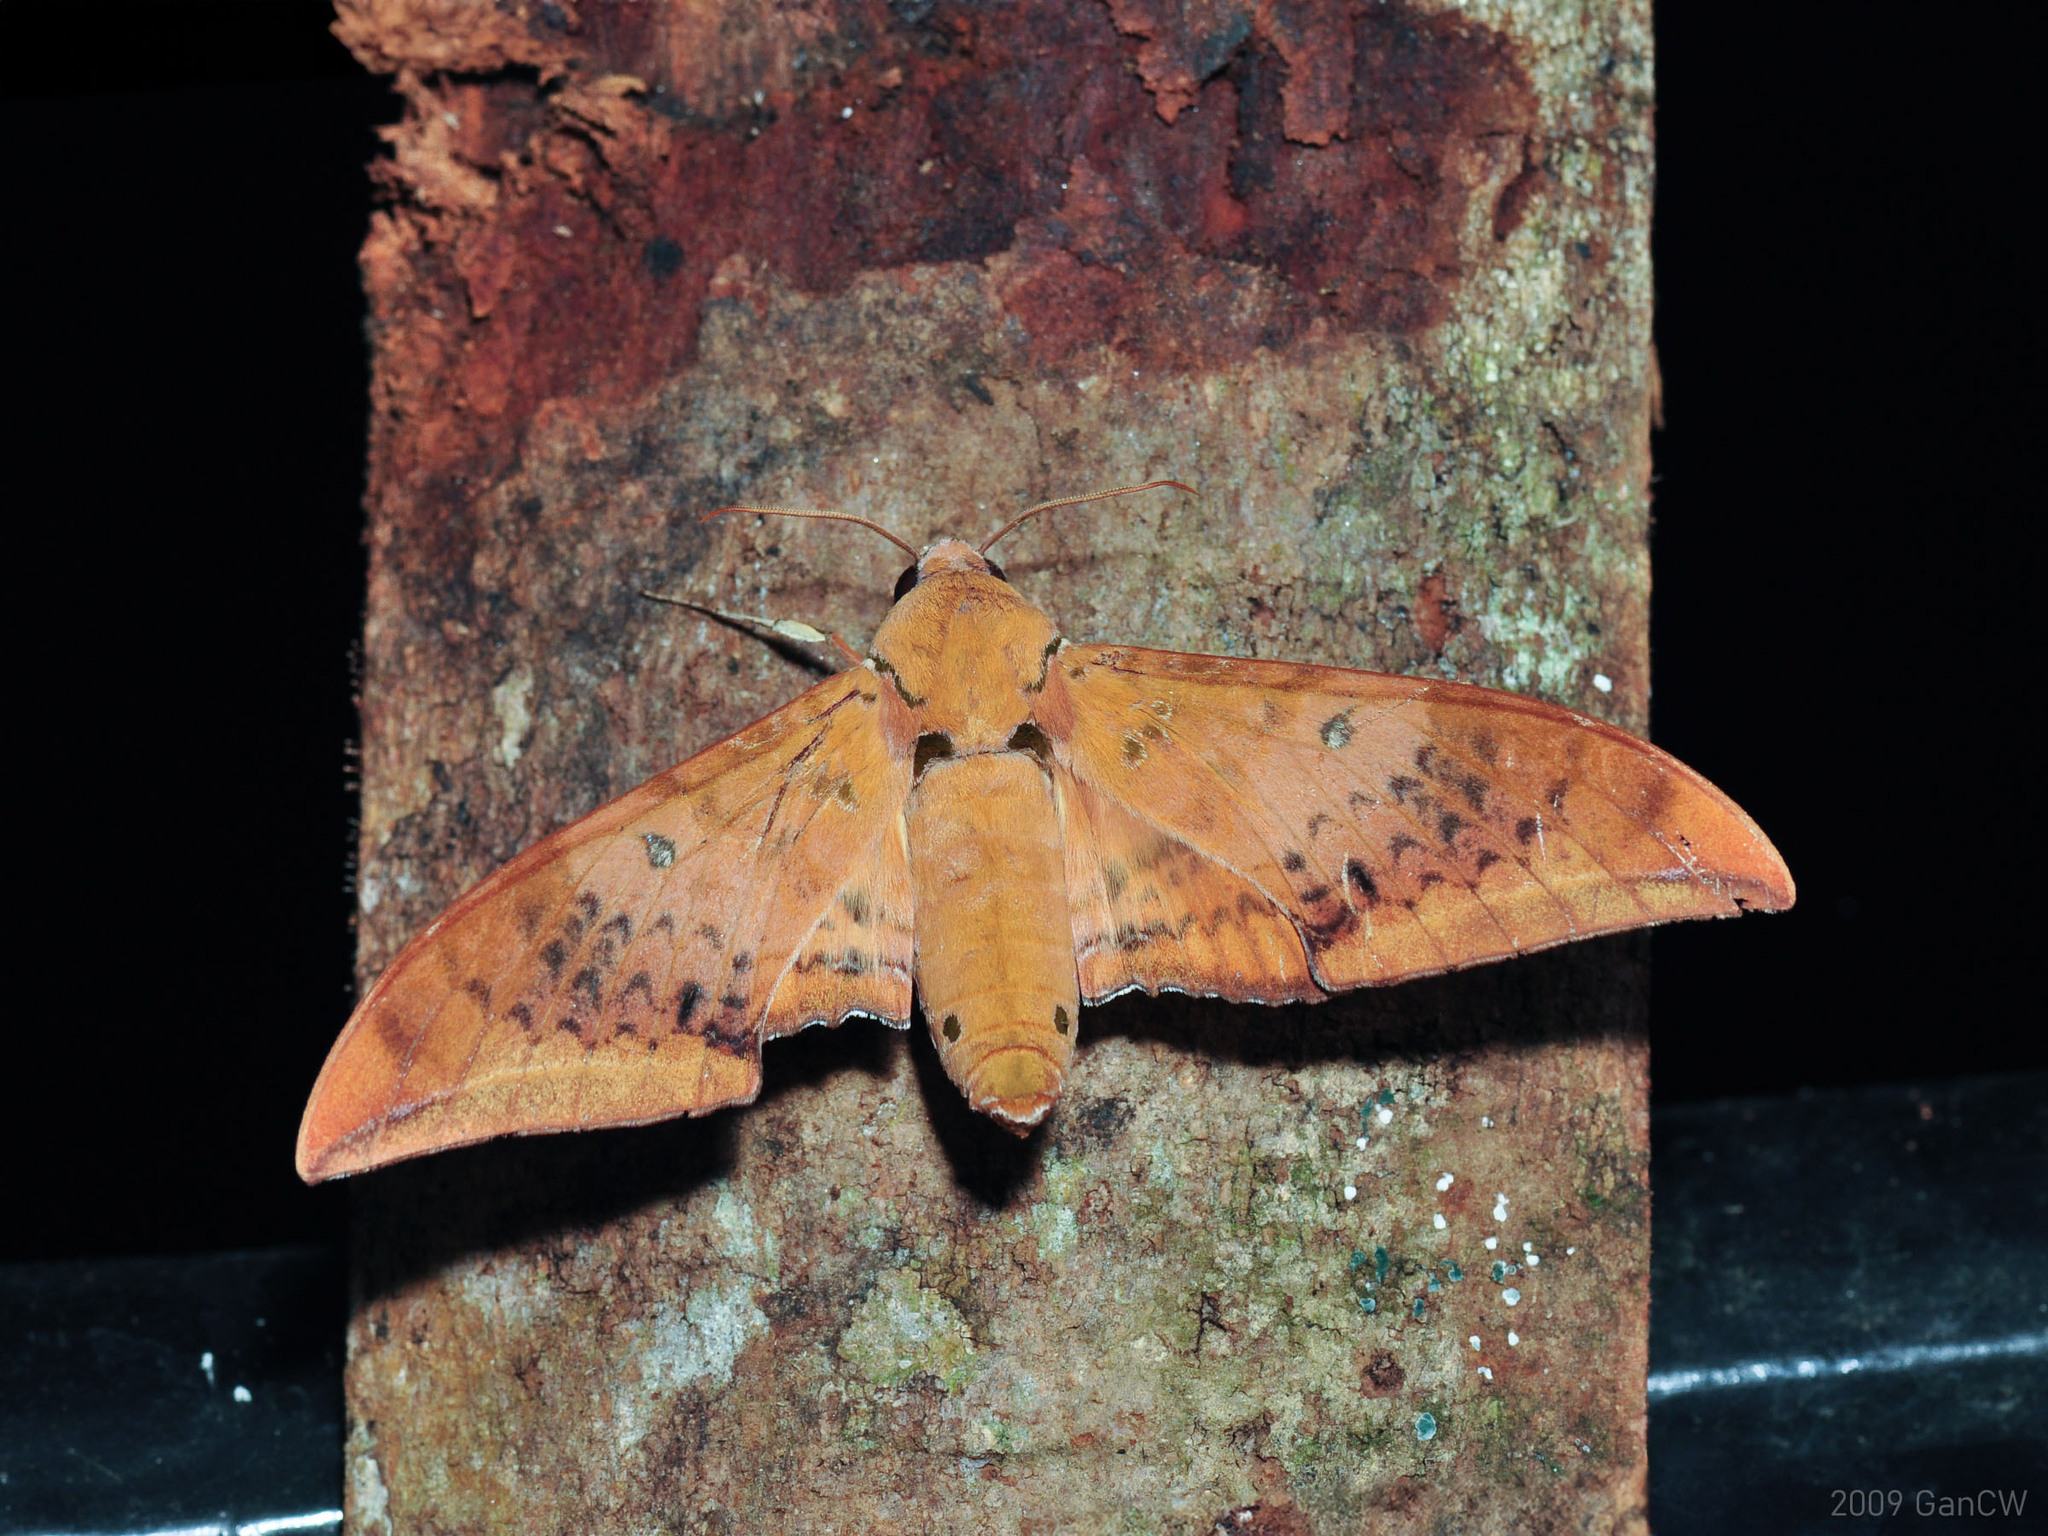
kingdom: Animalia
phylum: Arthropoda
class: Insecta
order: Lepidoptera
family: Sphingidae
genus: Ambulyx
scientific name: Ambulyx moorei
